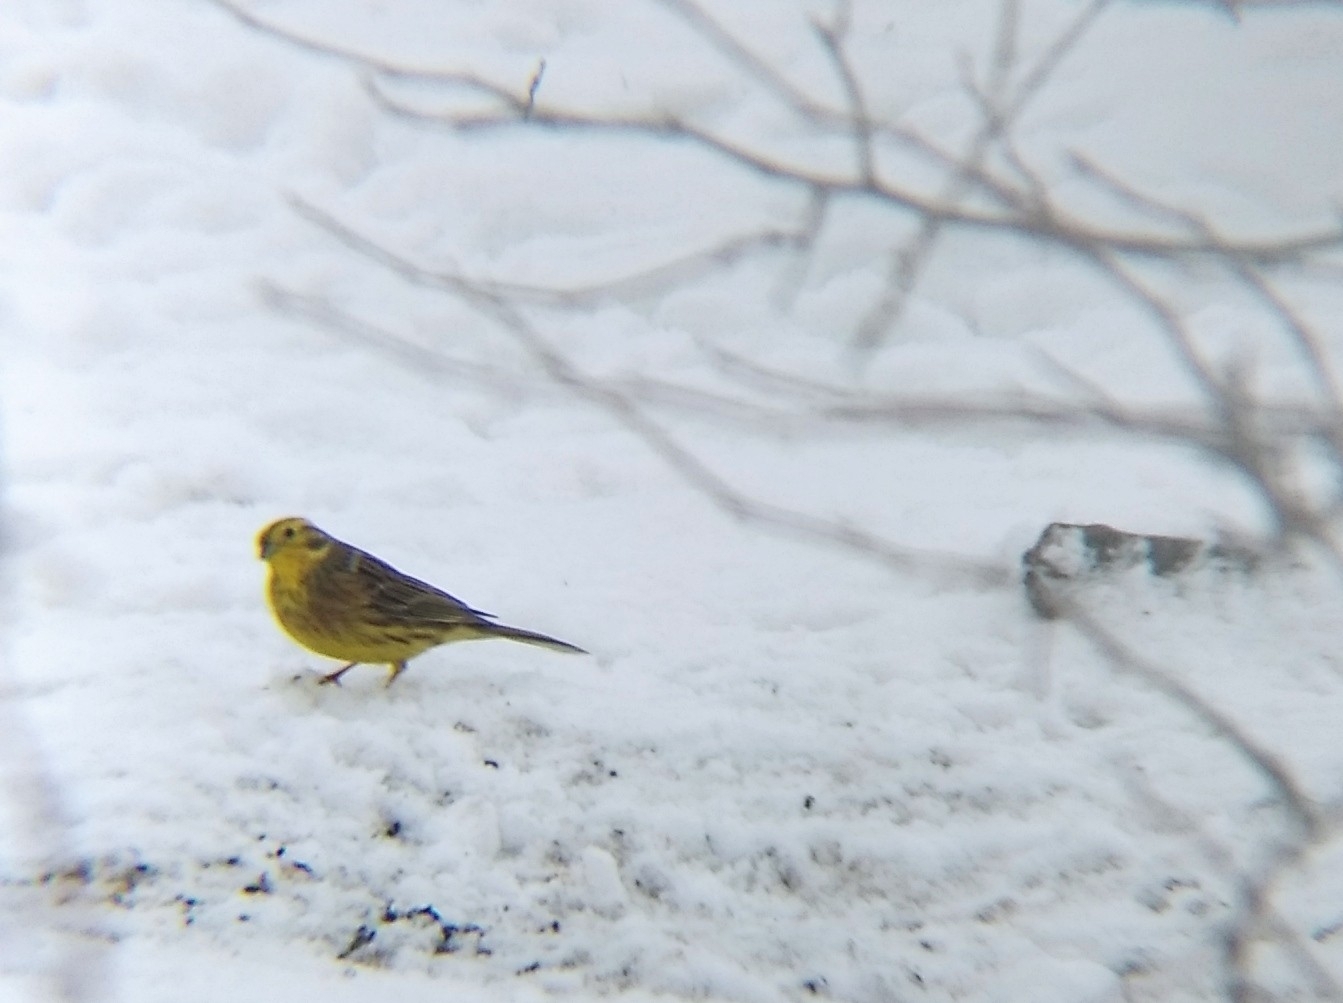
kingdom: Animalia
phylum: Chordata
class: Aves
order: Passeriformes
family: Emberizidae
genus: Emberiza
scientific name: Emberiza citrinella
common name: Yellowhammer
